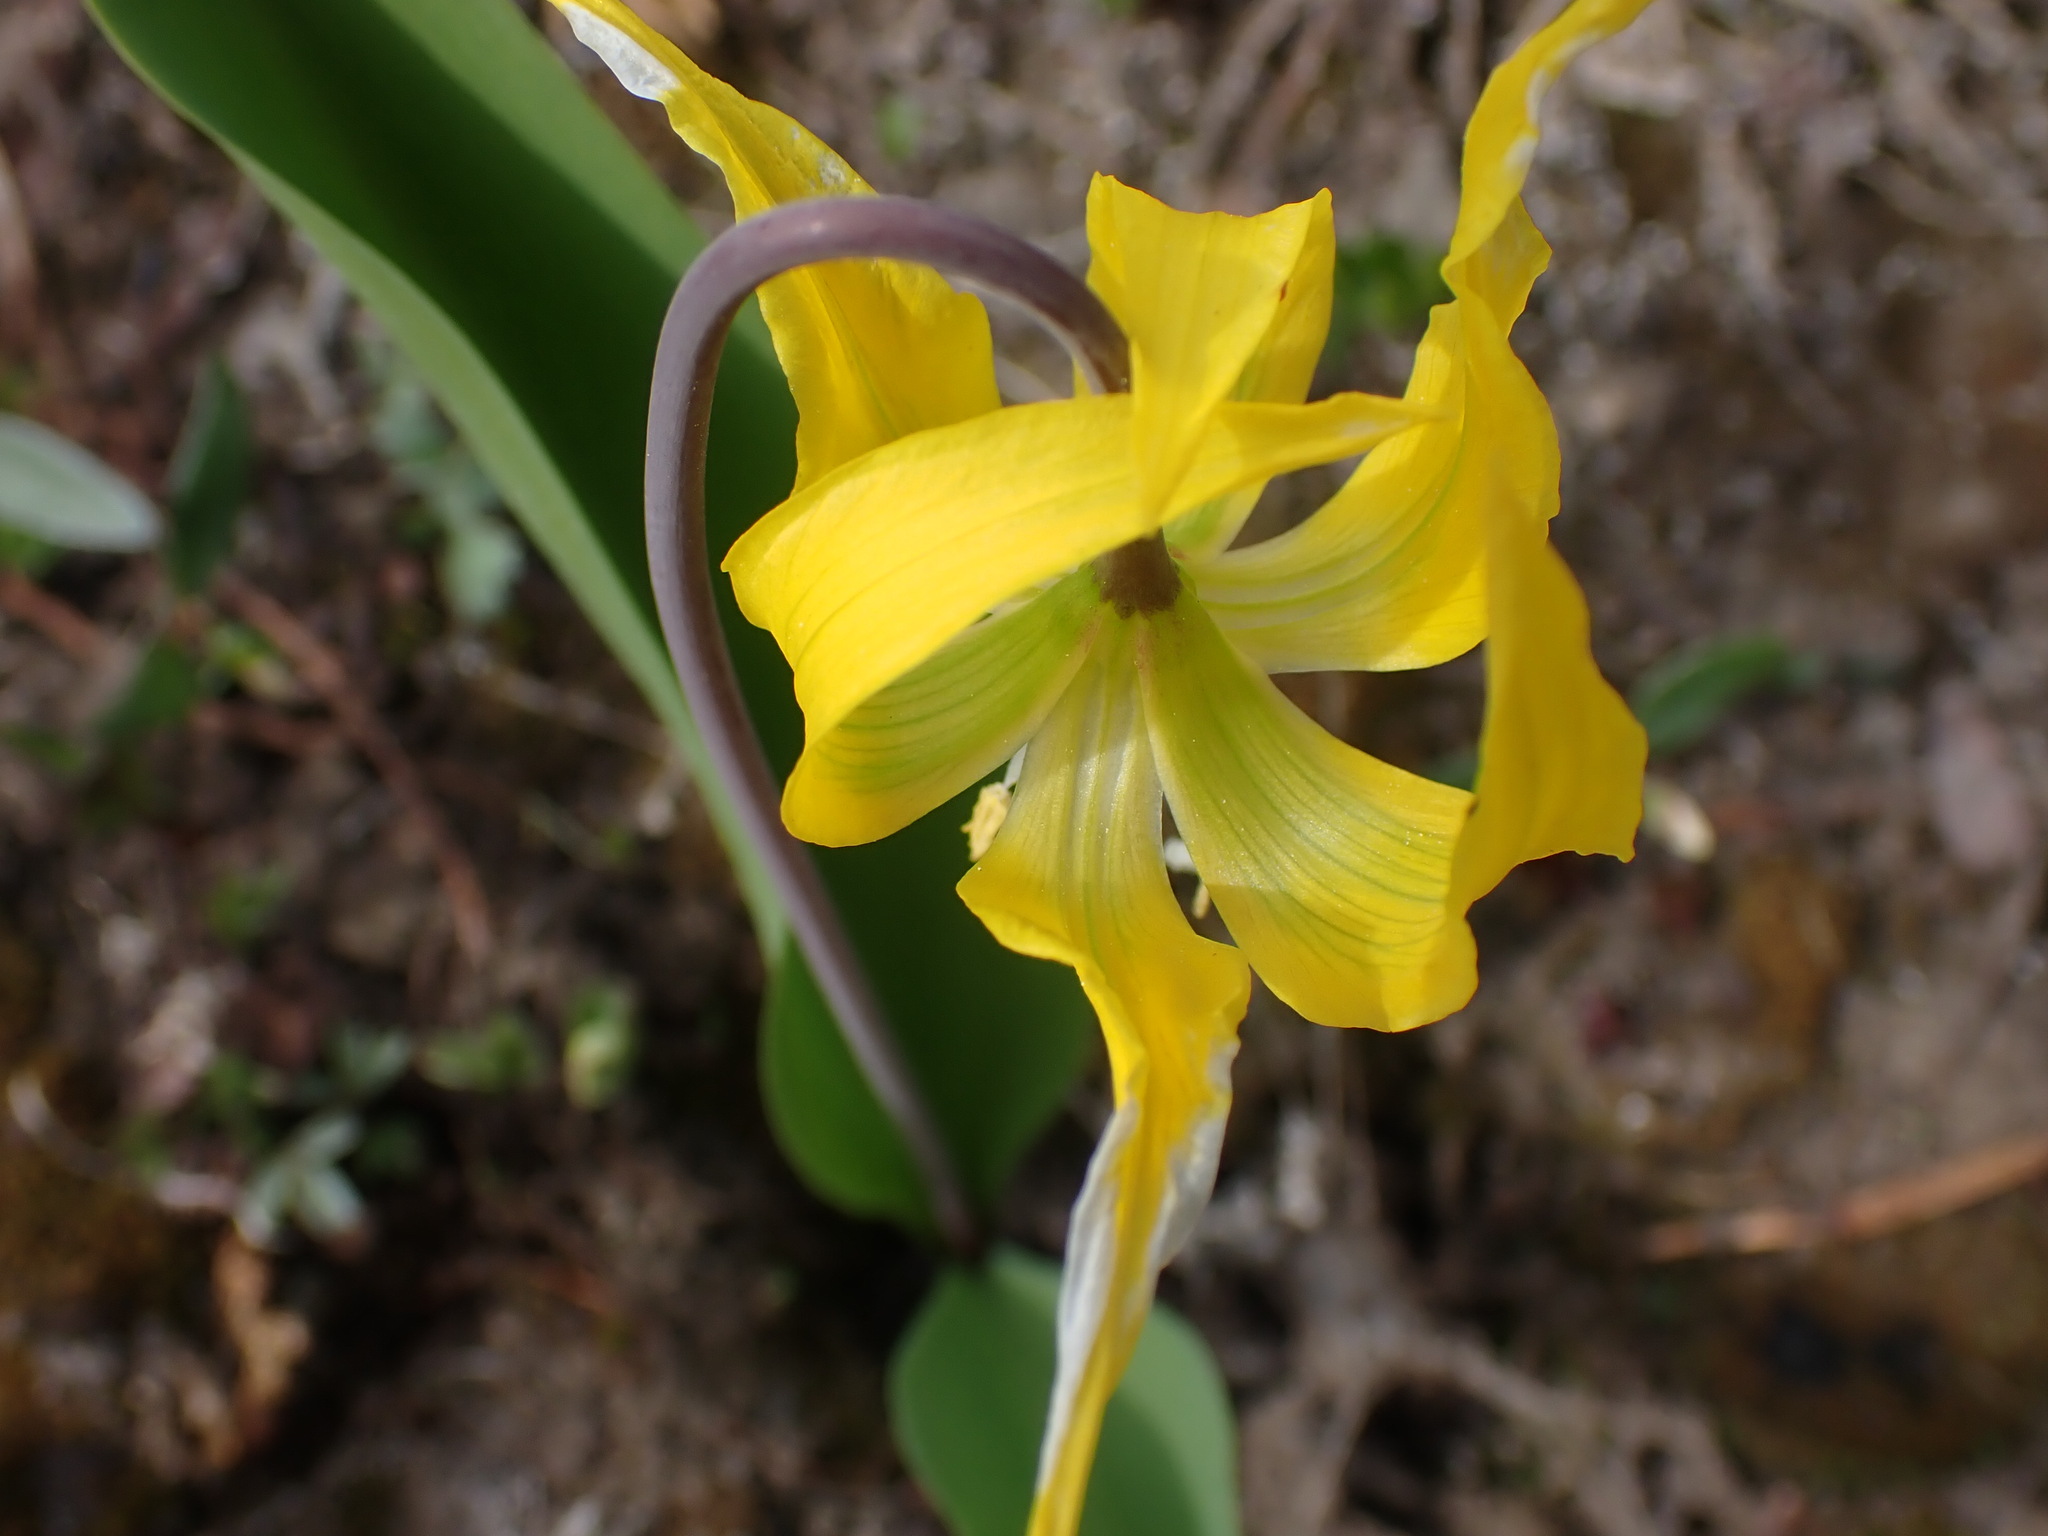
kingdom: Plantae
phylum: Tracheophyta
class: Liliopsida
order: Liliales
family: Liliaceae
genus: Erythronium
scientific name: Erythronium grandiflorum
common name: Avalanche-lily
